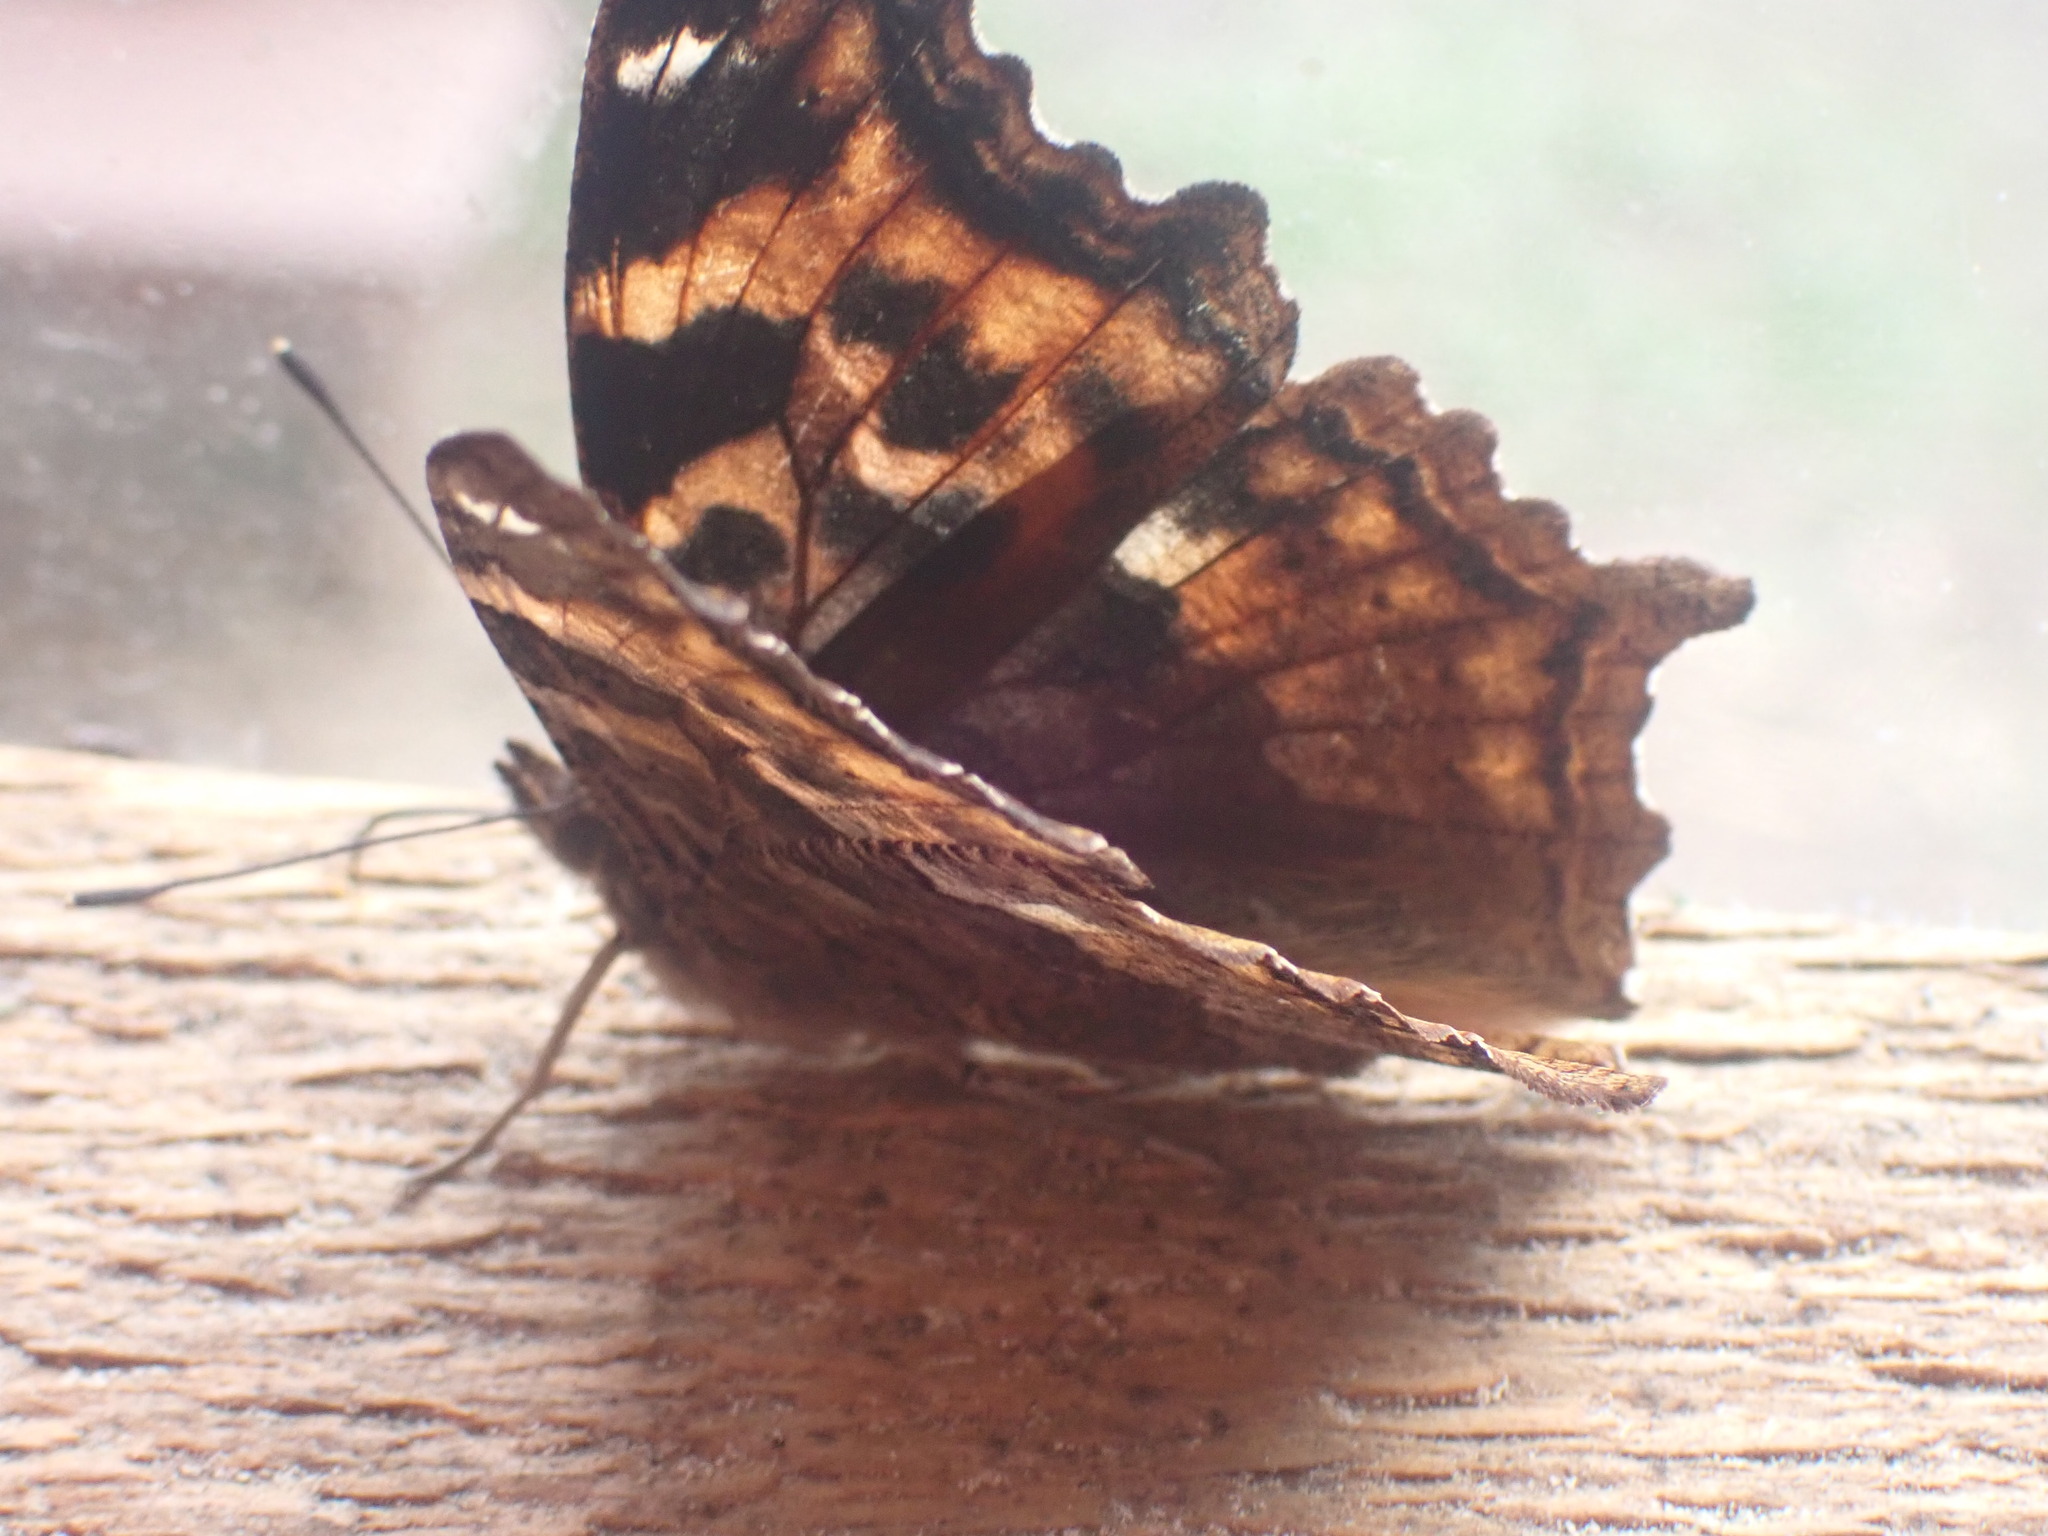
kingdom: Animalia
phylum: Arthropoda
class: Insecta
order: Lepidoptera
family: Nymphalidae
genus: Polygonia
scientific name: Polygonia vaualbum
